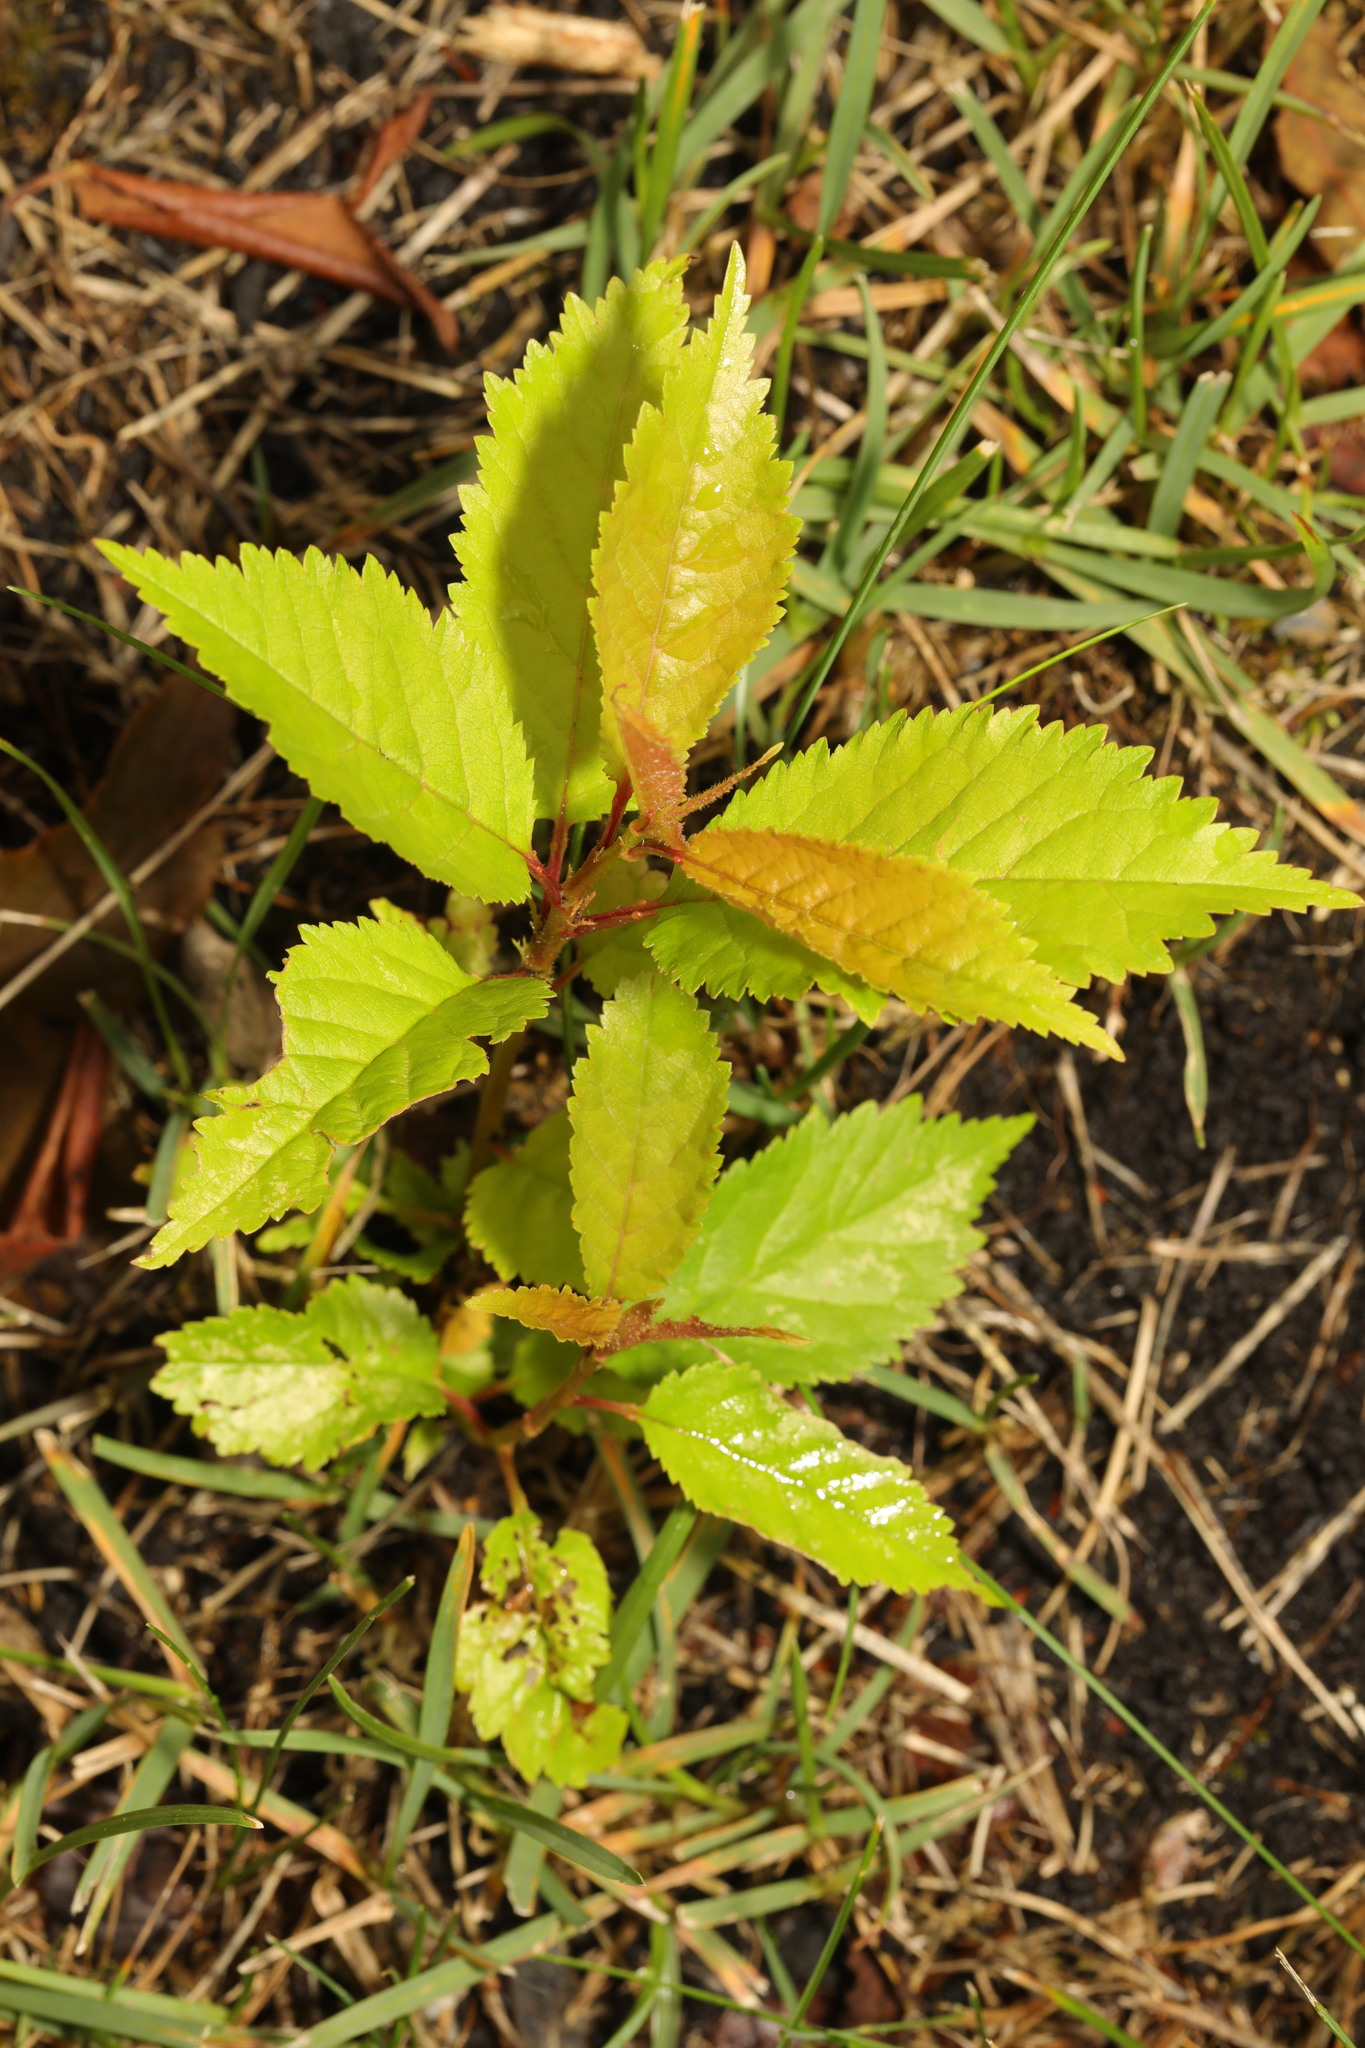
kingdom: Plantae
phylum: Tracheophyta
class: Magnoliopsida
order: Rosales
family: Rosaceae
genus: Prunus
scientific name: Prunus avium
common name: Sweet cherry
